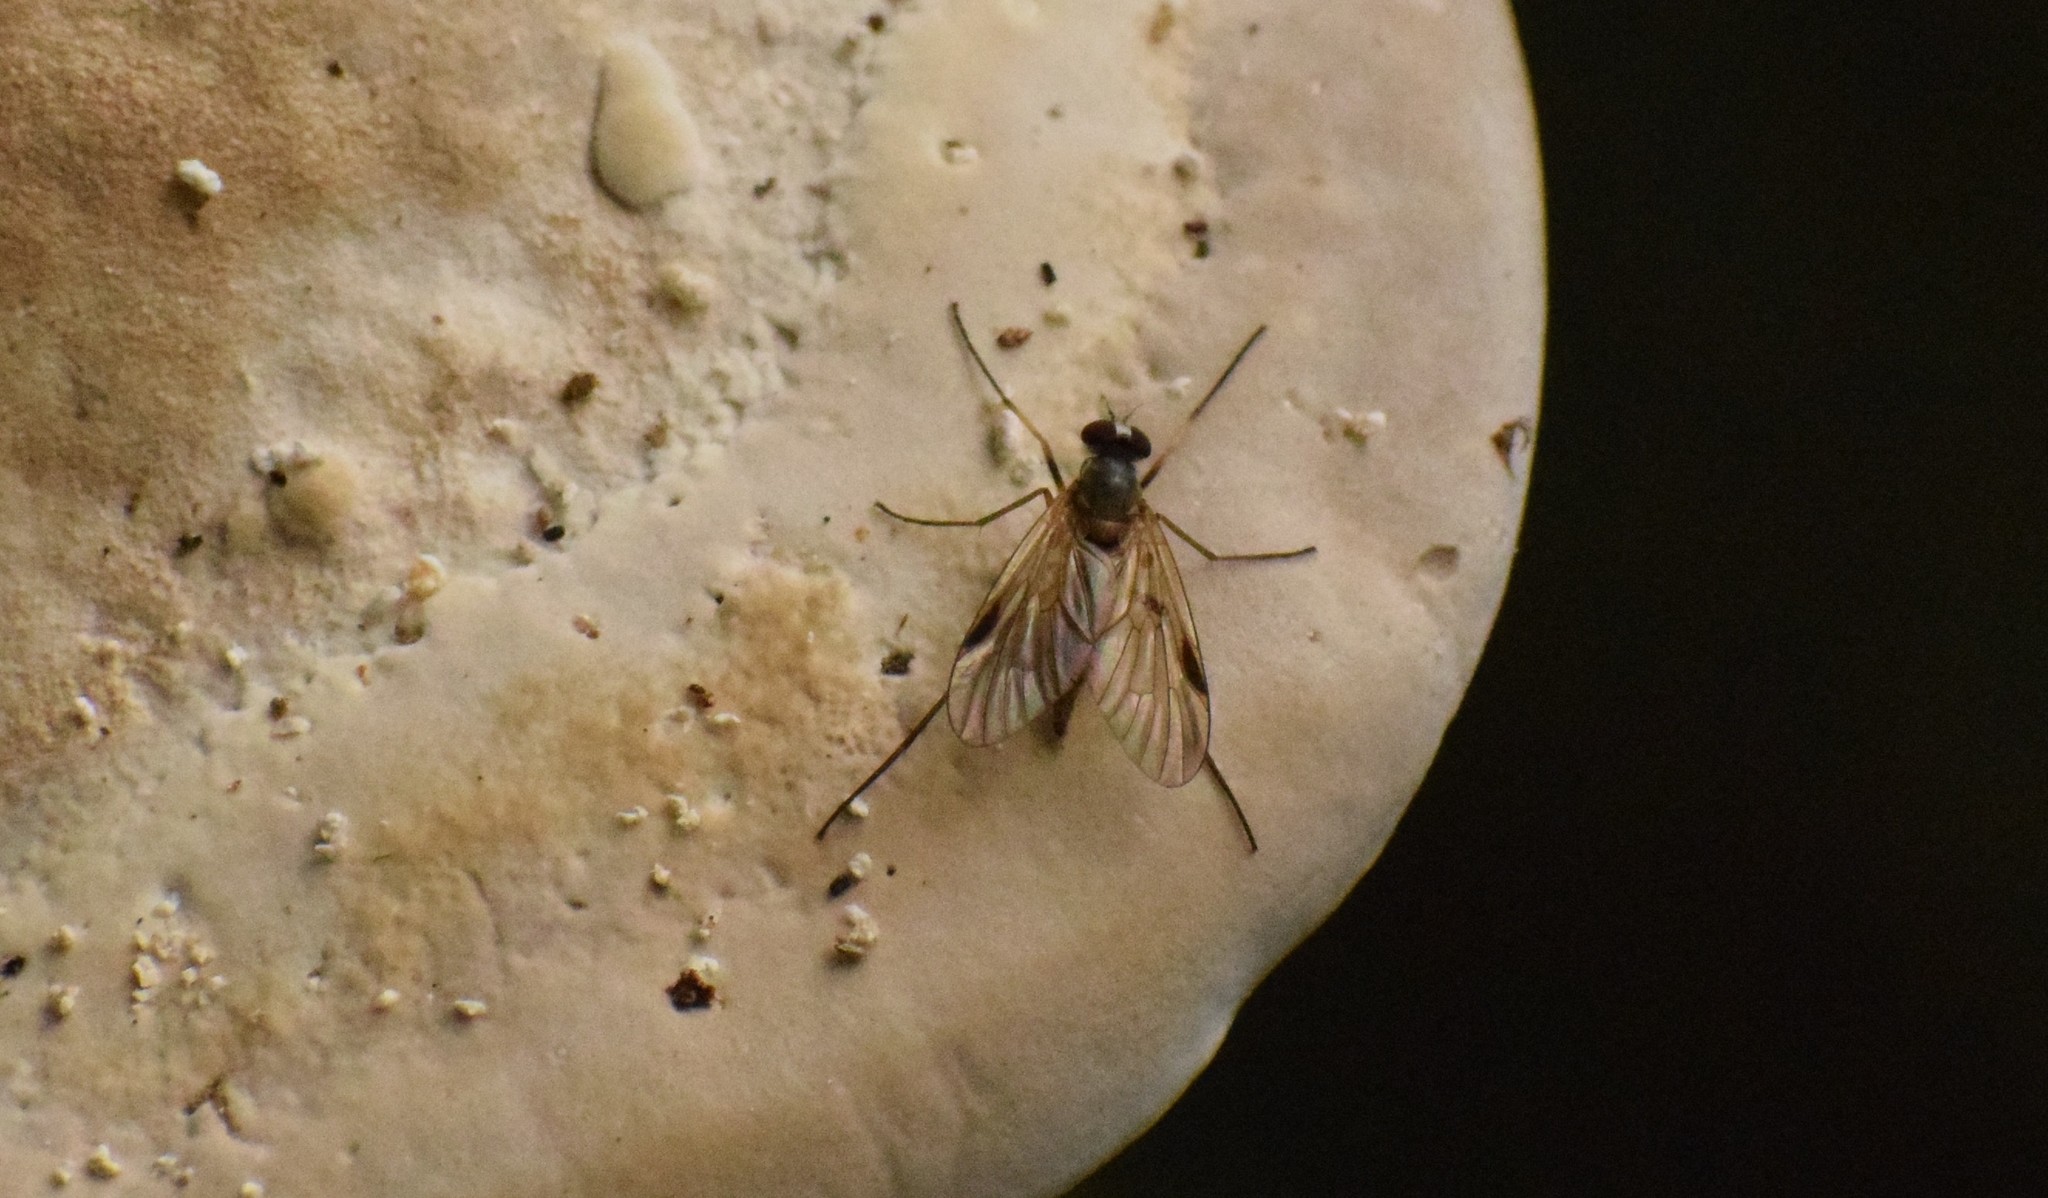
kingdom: Animalia
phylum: Arthropoda
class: Insecta
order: Diptera
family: Rhagionidae
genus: Rhagio
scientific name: Rhagio lineola
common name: Small fleck-winged snipefly
